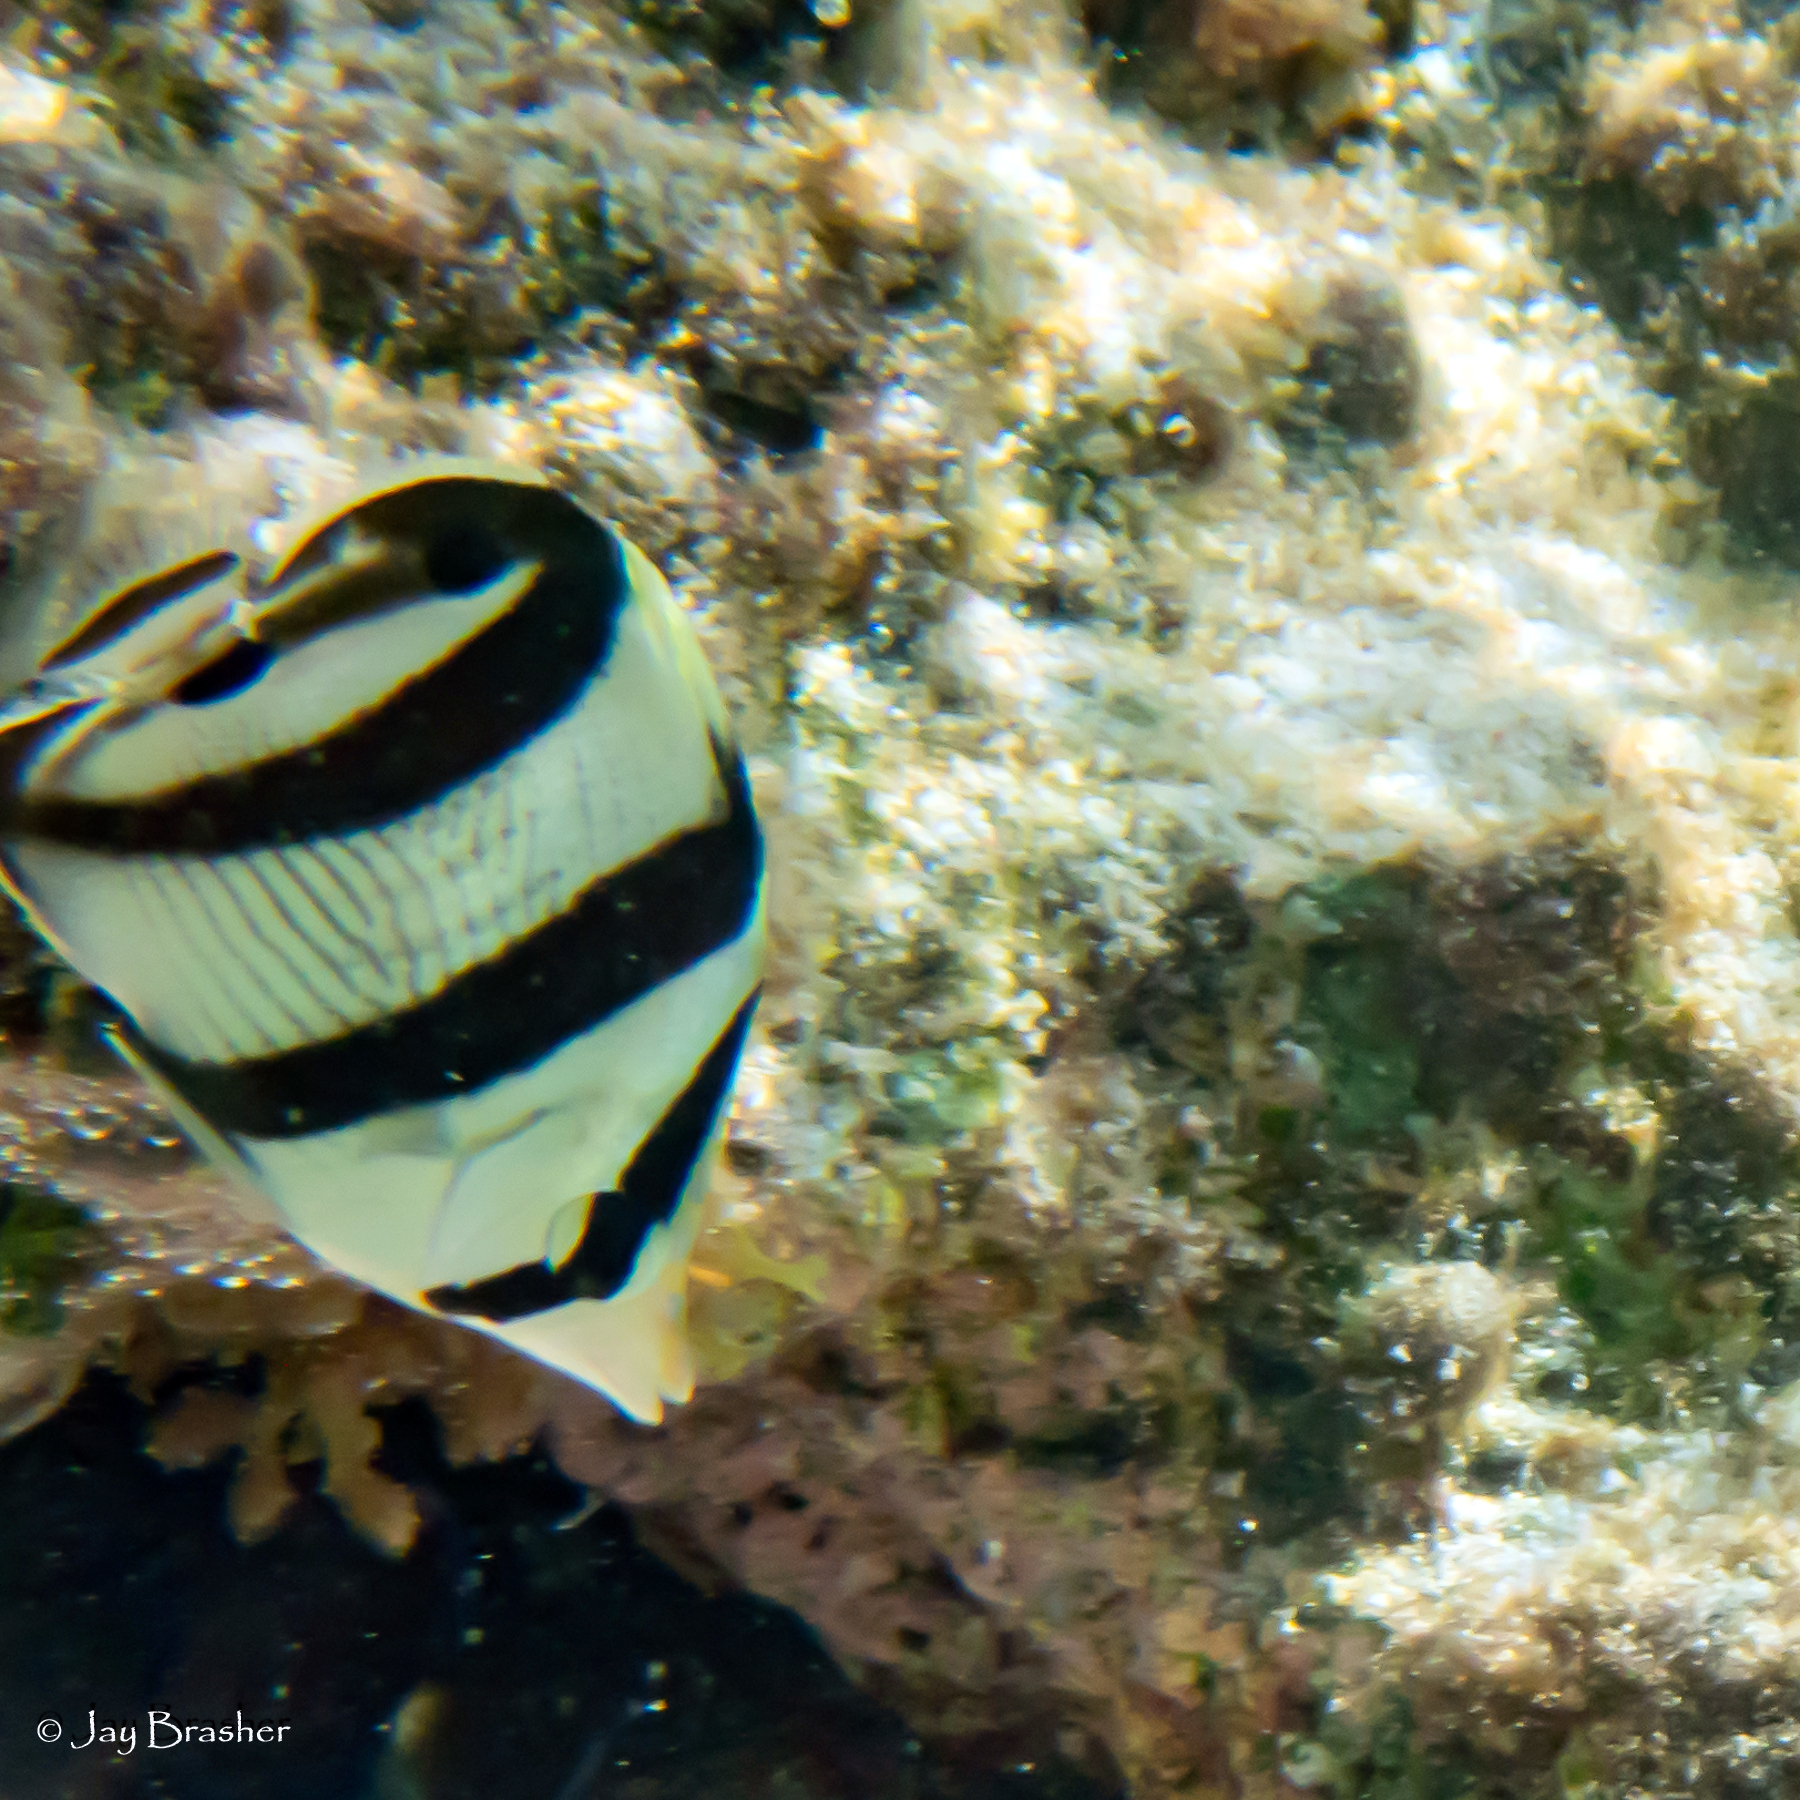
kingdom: Animalia
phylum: Chordata
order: Perciformes
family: Chaetodontidae
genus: Chaetodon
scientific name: Chaetodon striatus
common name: Banded butterflyfish
